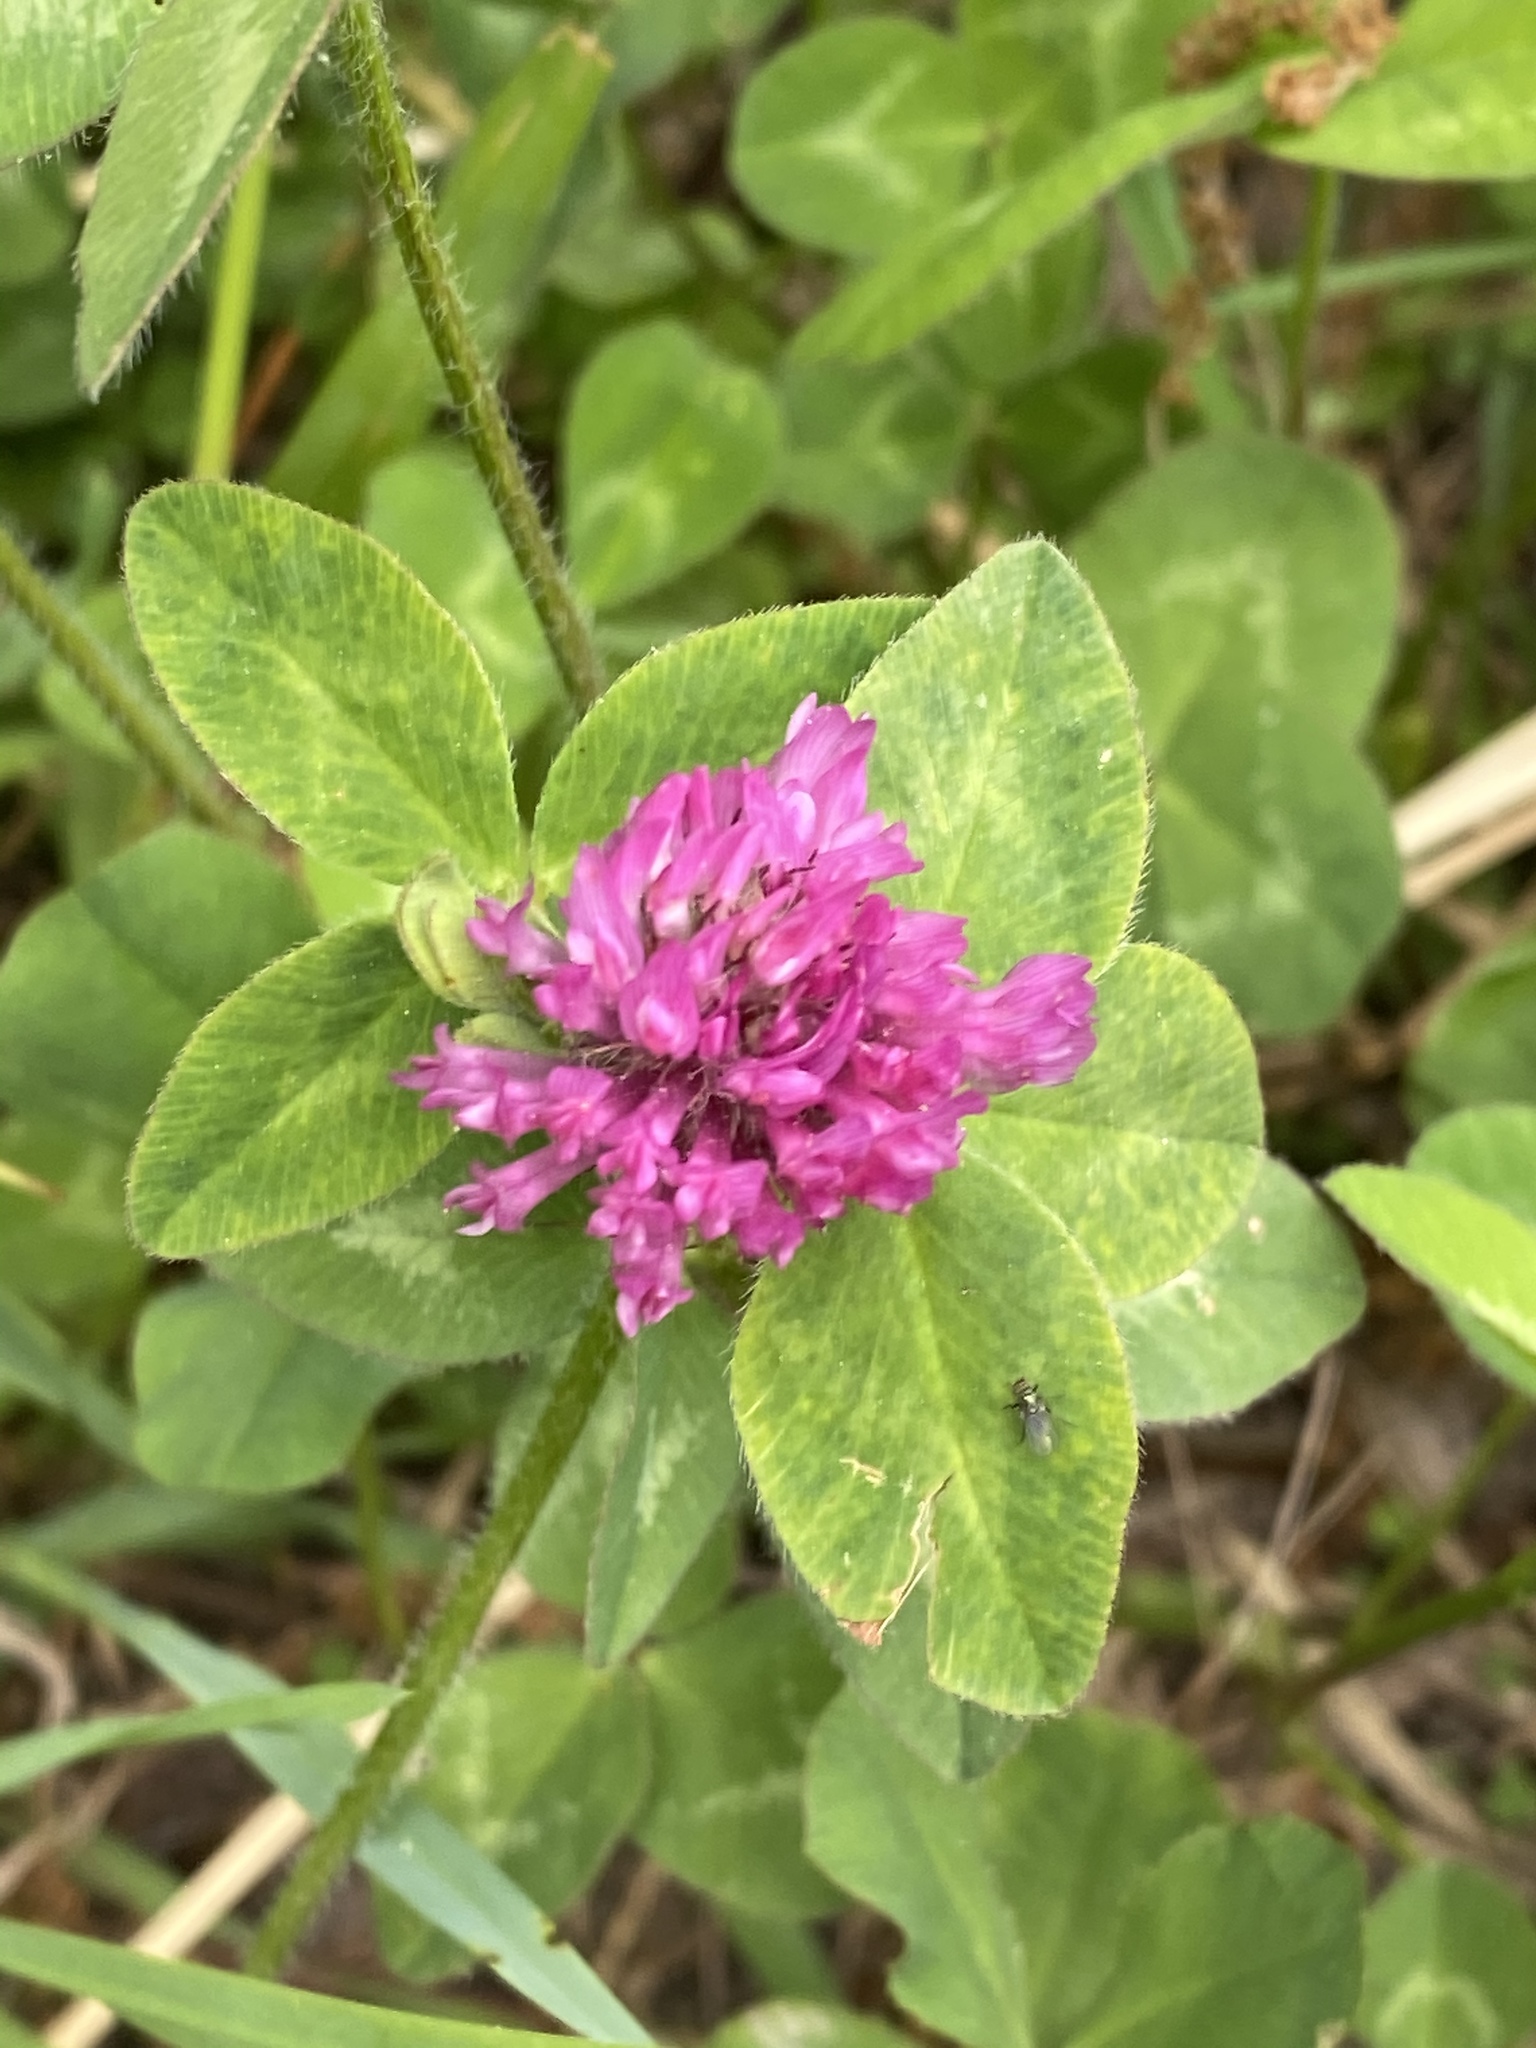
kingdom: Plantae
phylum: Tracheophyta
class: Magnoliopsida
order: Fabales
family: Fabaceae
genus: Trifolium
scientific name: Trifolium pratense
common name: Red clover
